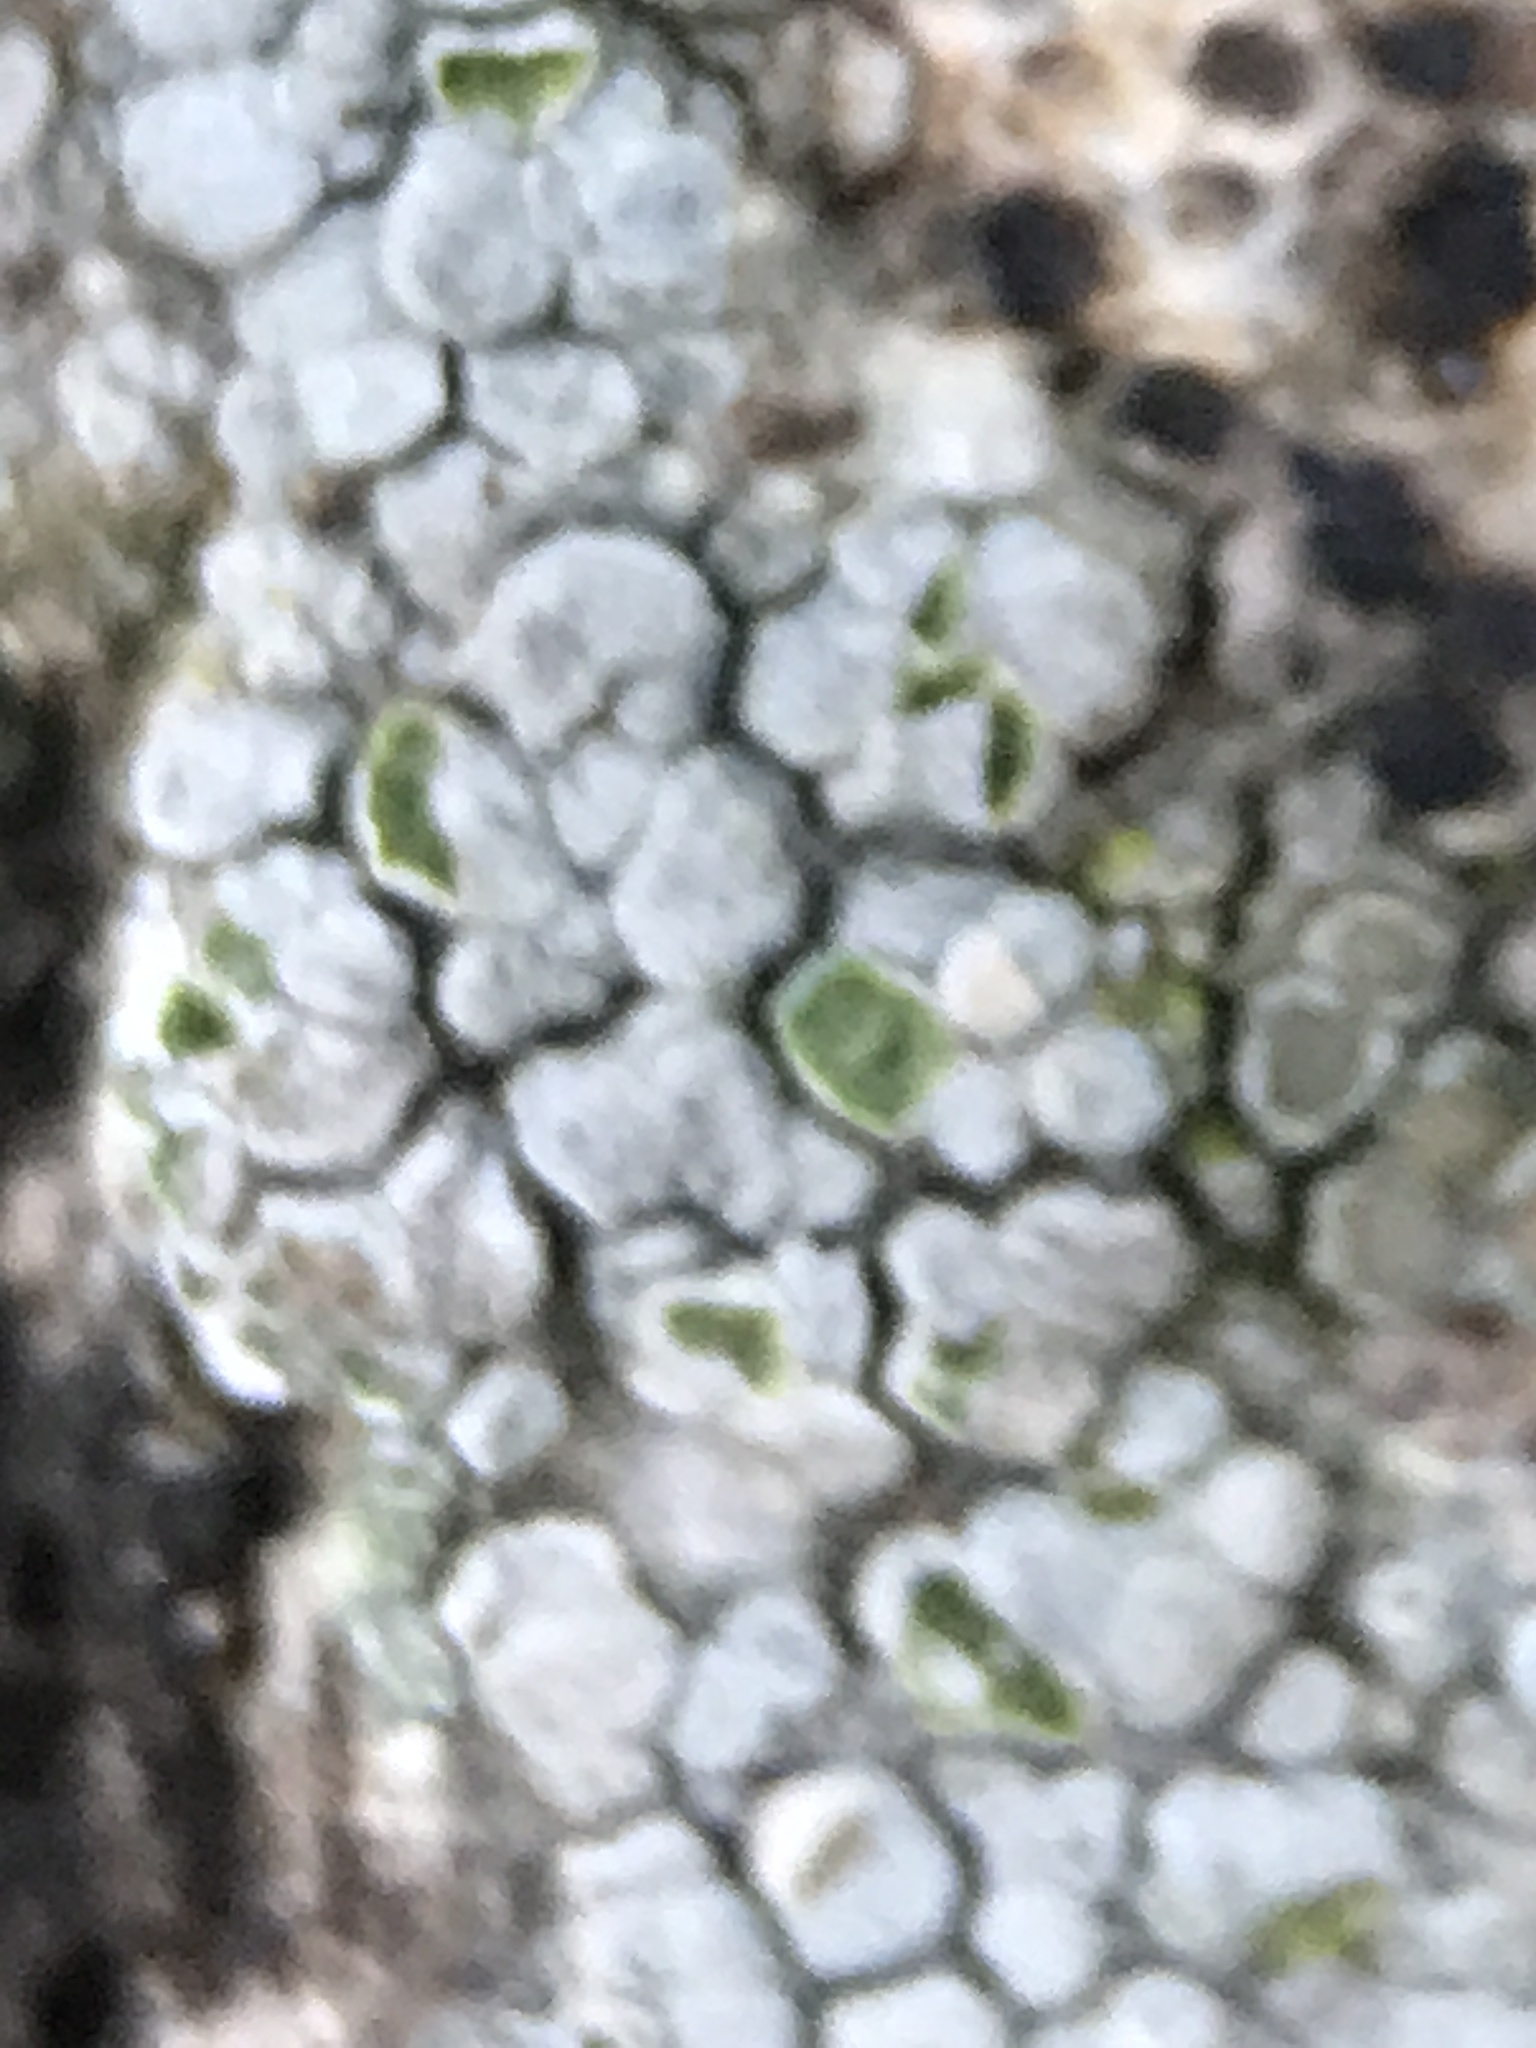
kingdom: Fungi
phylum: Ascomycota
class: Lecanoromycetes
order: Lecanorales
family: Lecanoraceae
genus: Glaucomaria
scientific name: Glaucomaria carpinea
